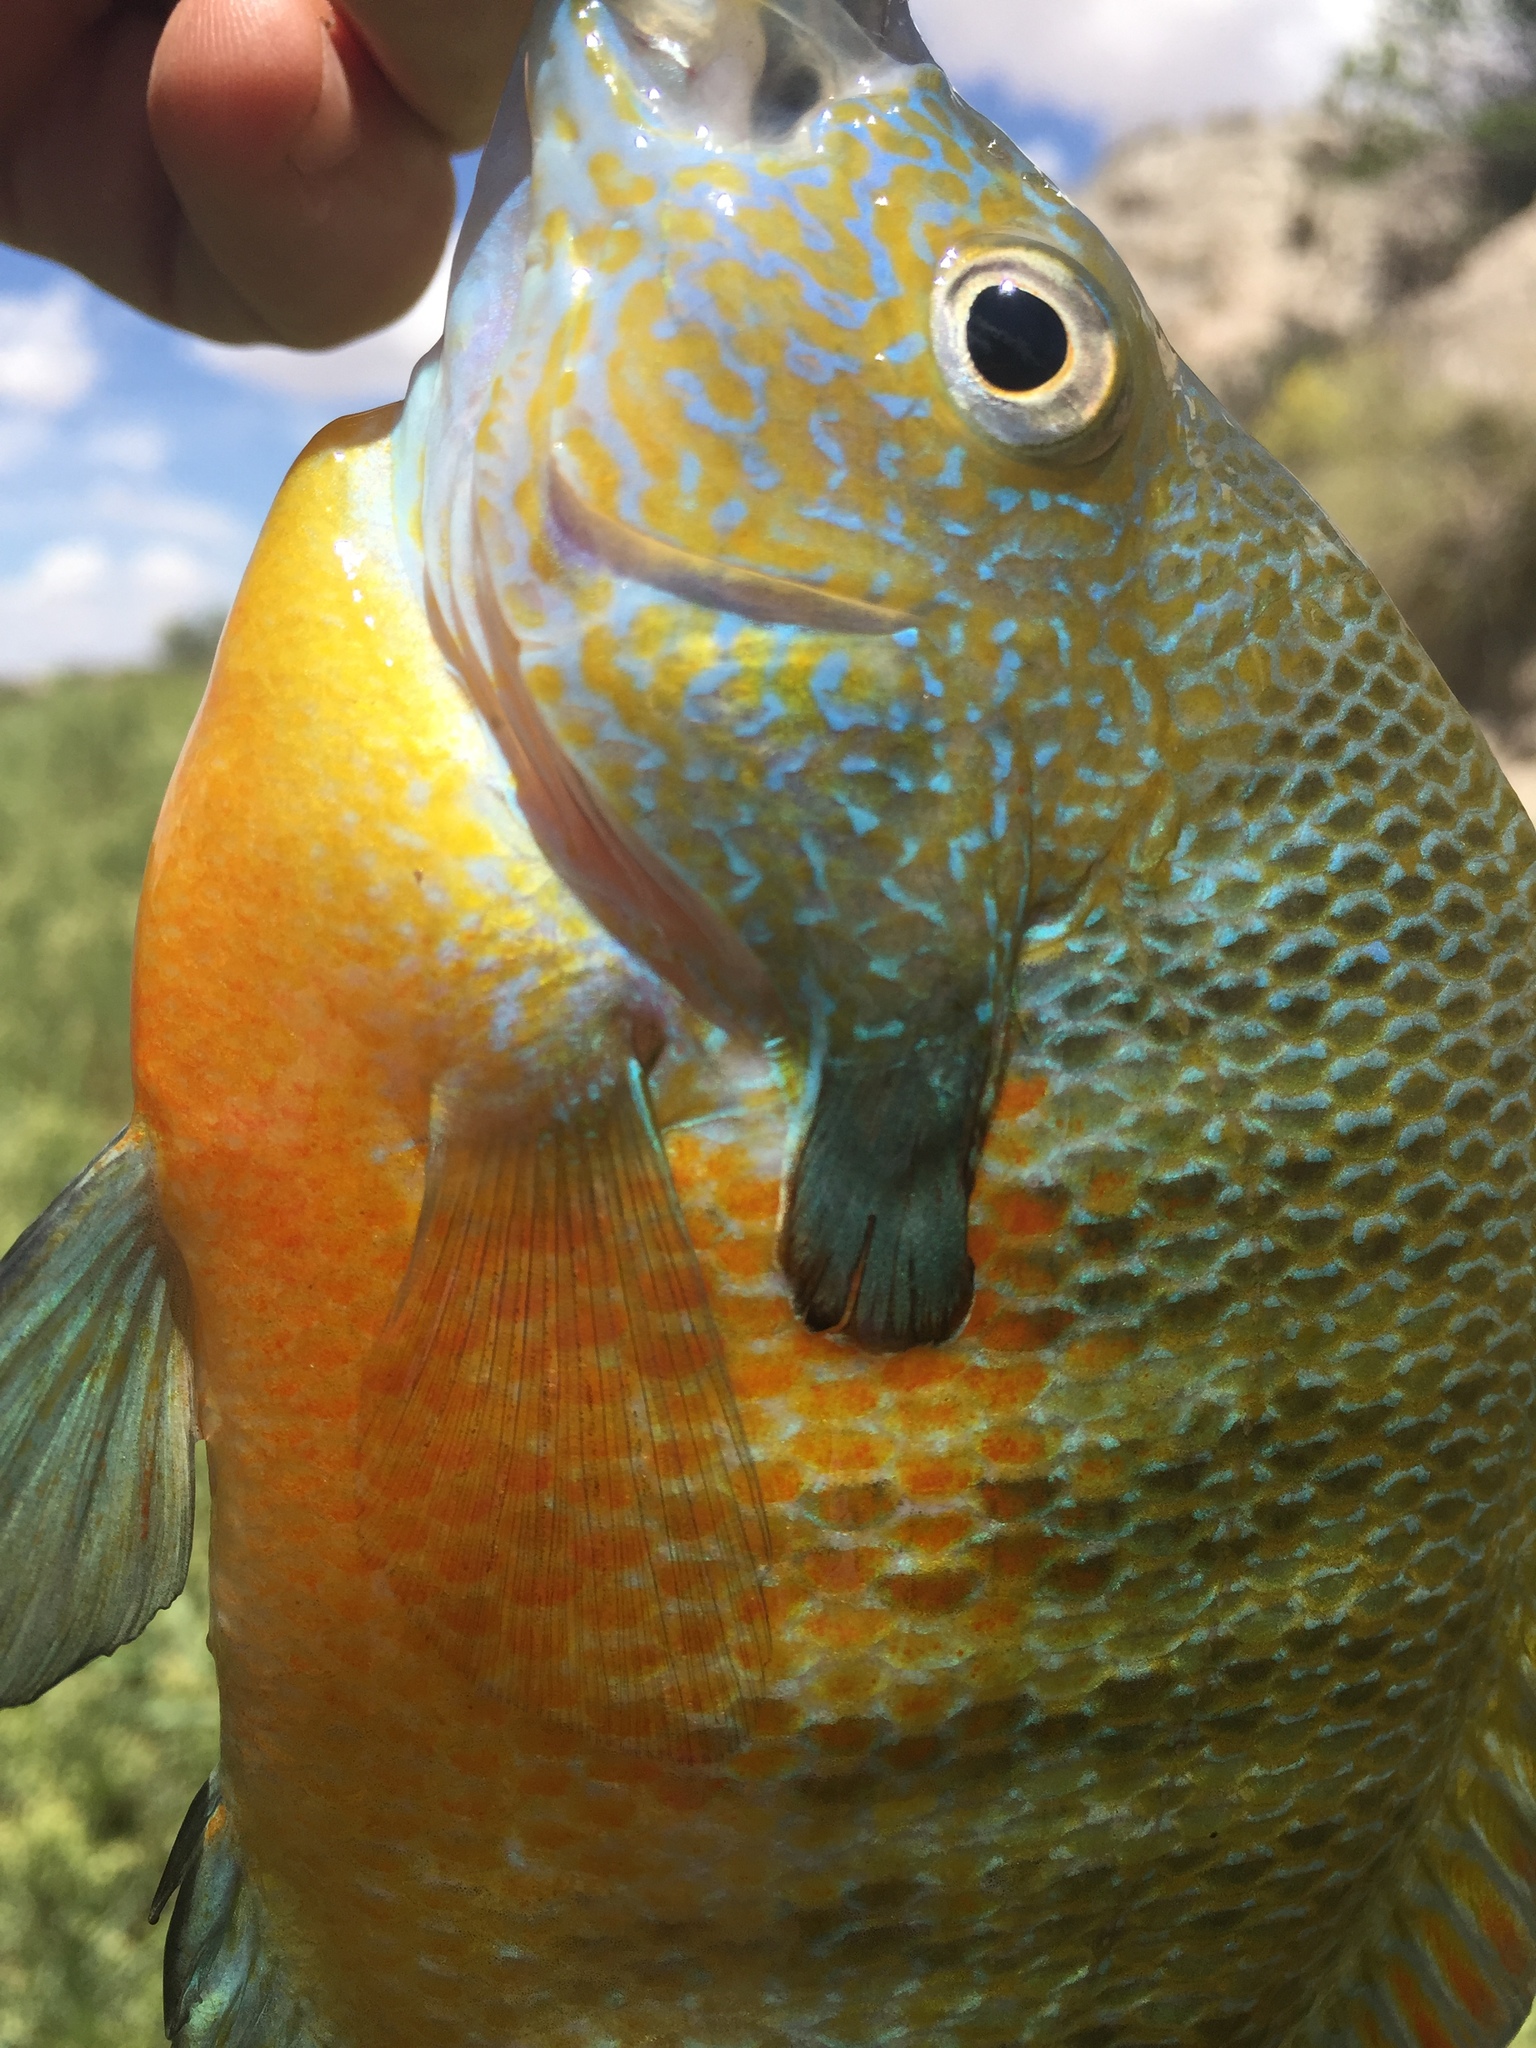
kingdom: Animalia
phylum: Chordata
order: Perciformes
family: Centrarchidae
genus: Lepomis
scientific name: Lepomis megalotis
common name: Longear sunfish
